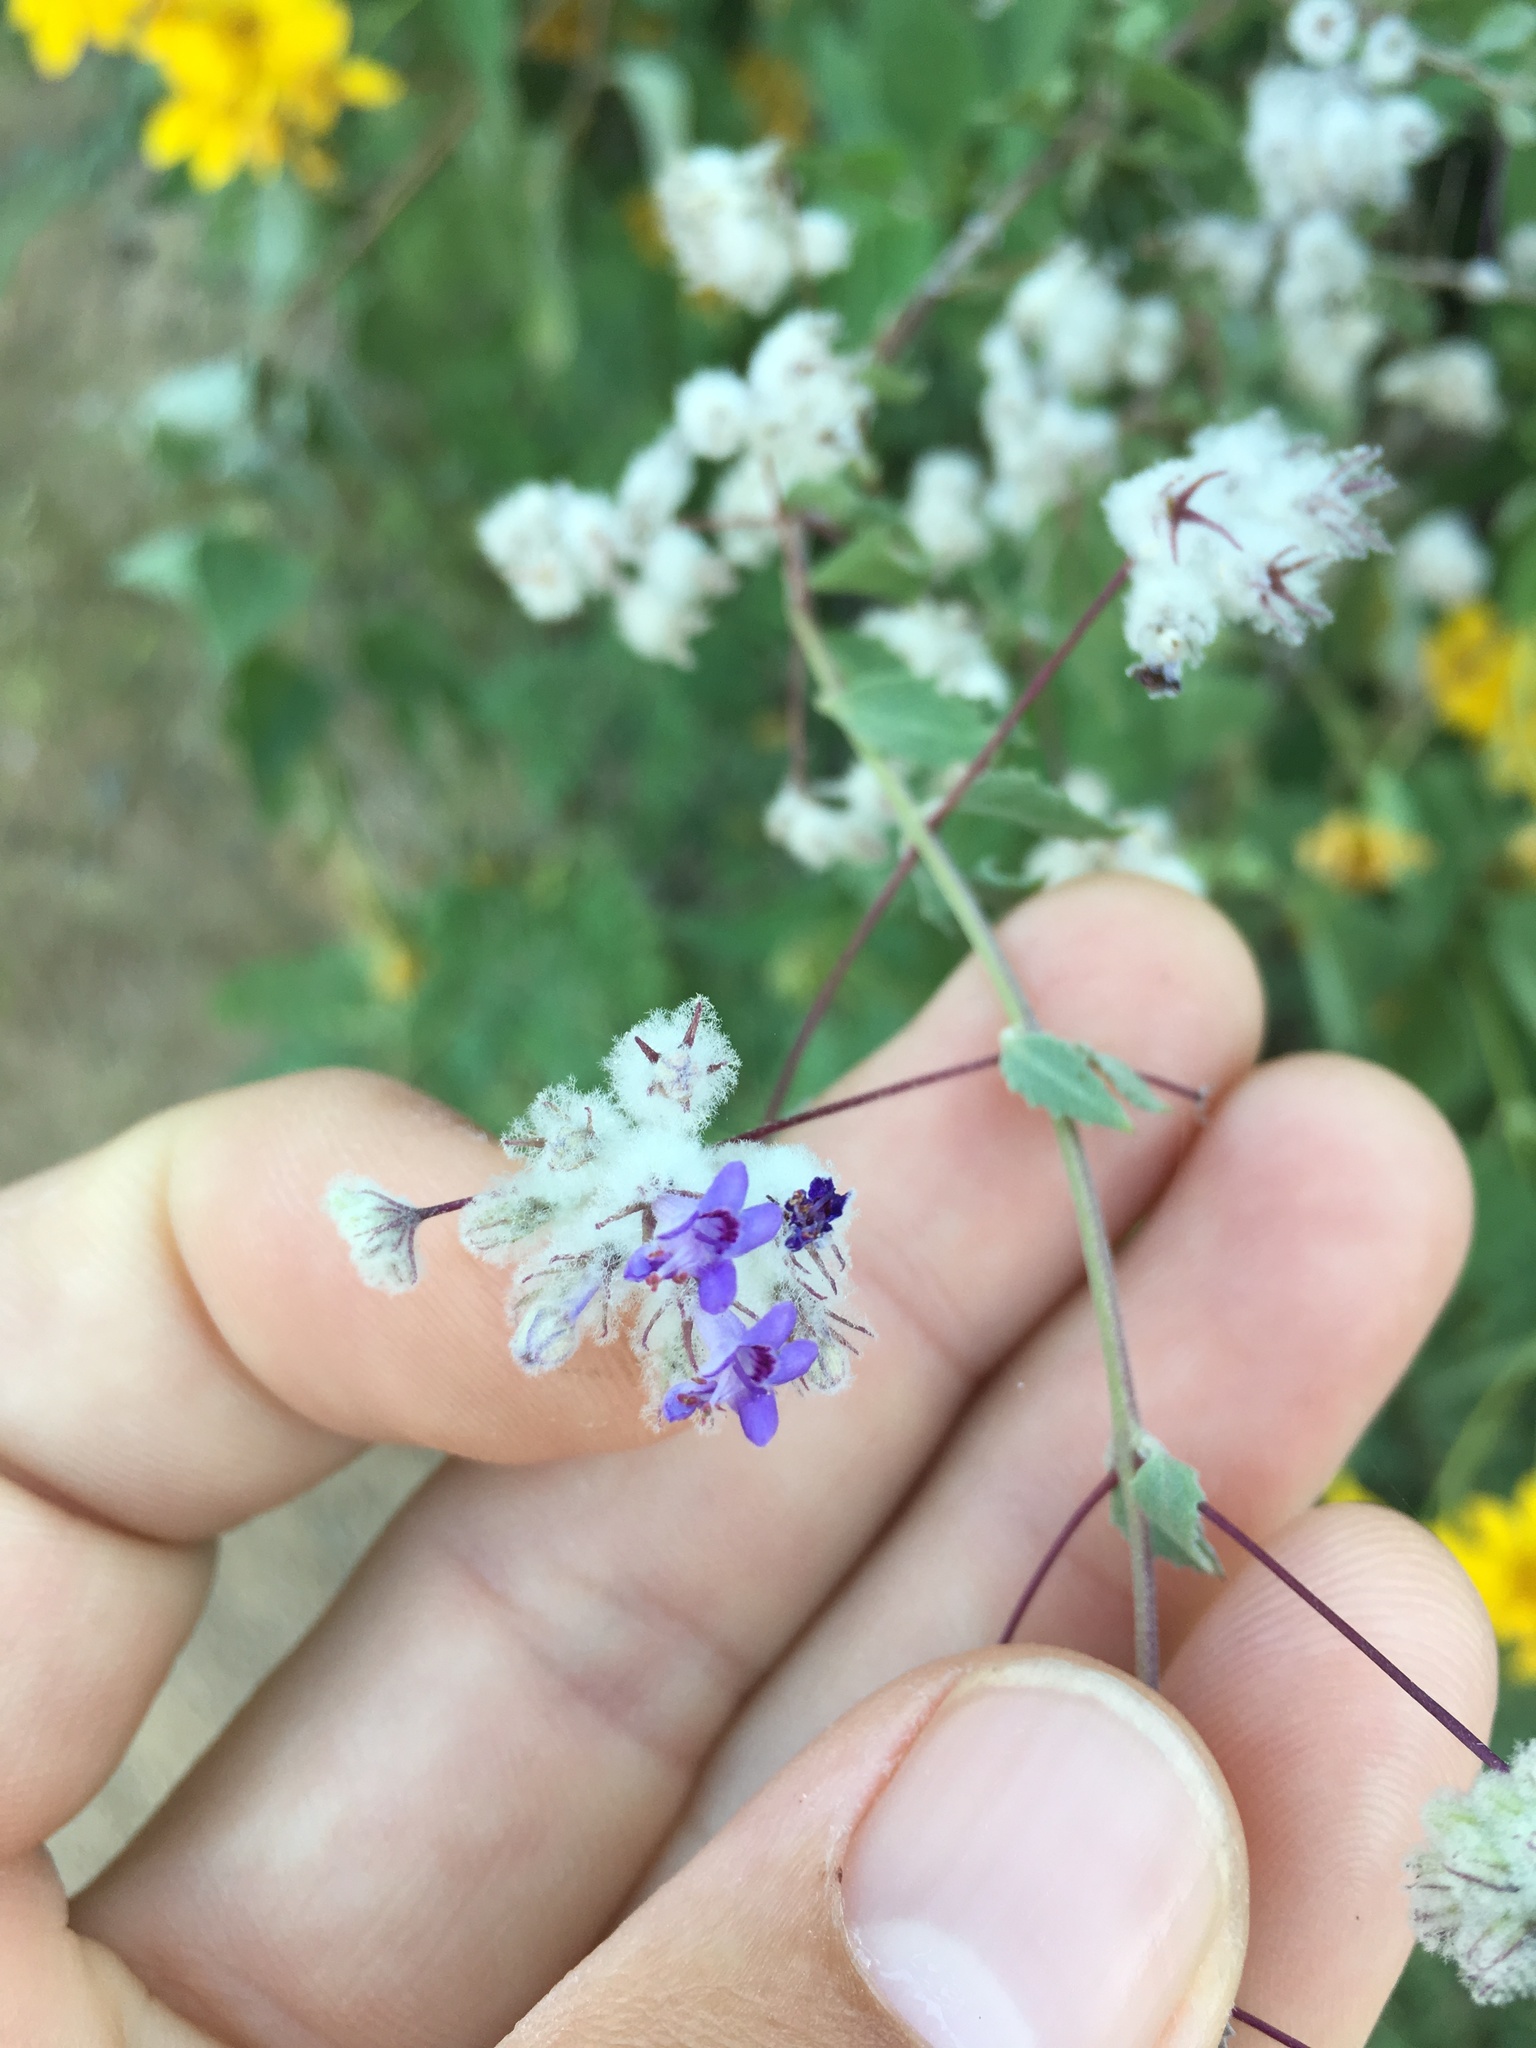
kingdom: Plantae
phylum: Tracheophyta
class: Magnoliopsida
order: Lamiales
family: Lamiaceae
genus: Condea
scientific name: Condea laniflora
